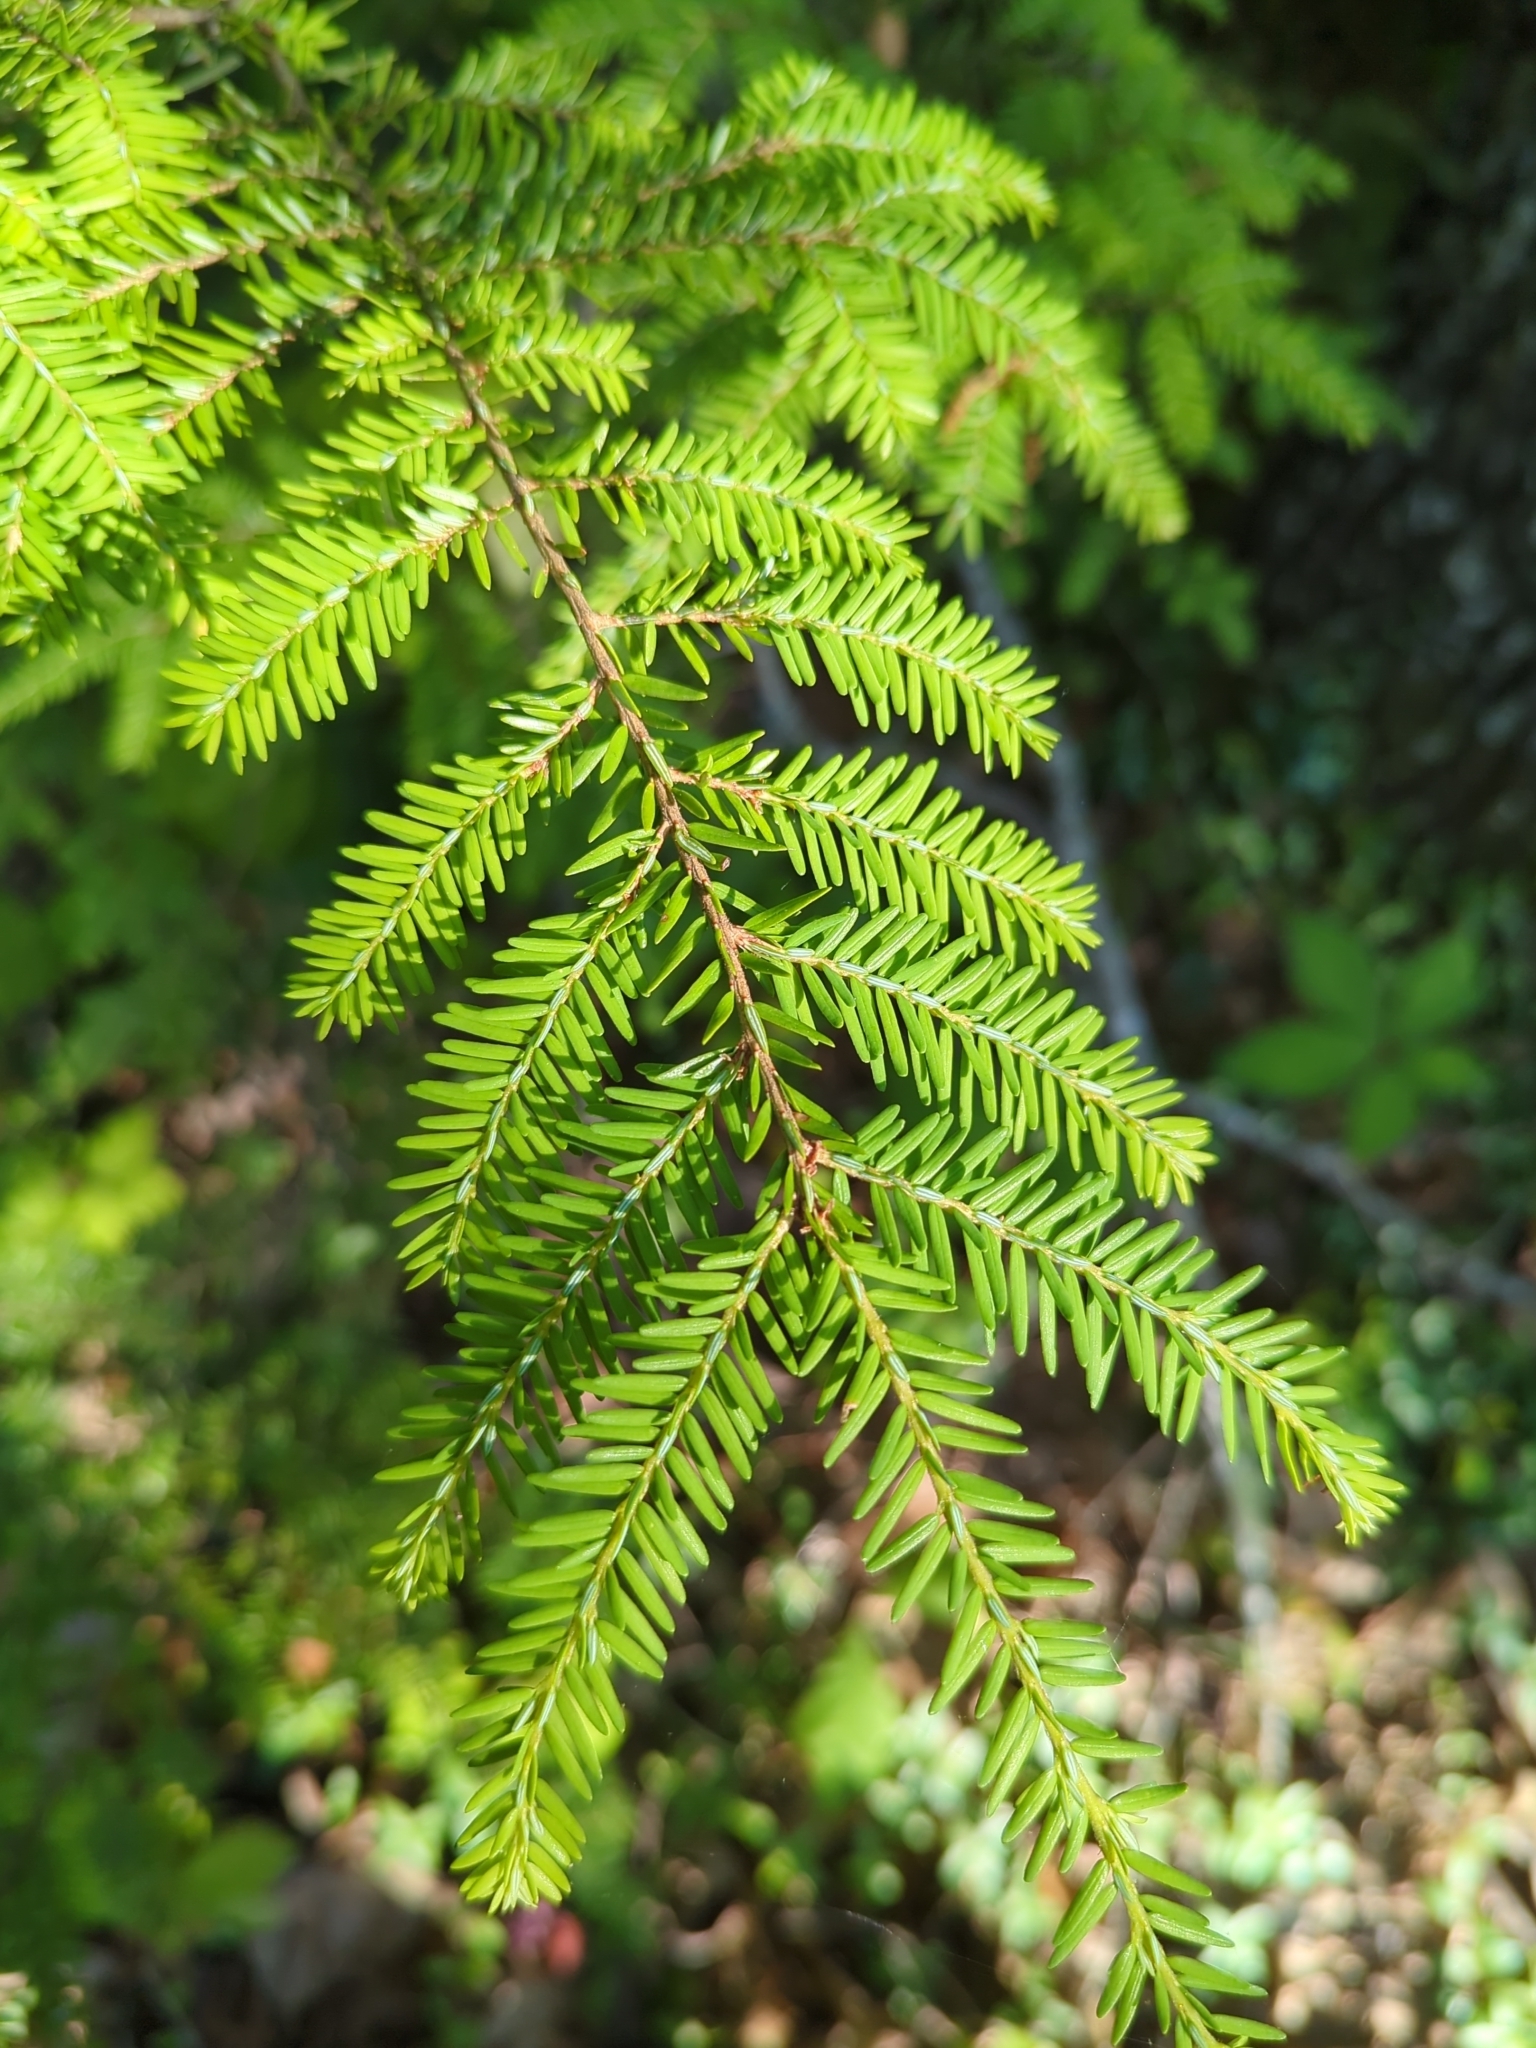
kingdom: Plantae
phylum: Tracheophyta
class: Pinopsida
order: Pinales
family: Pinaceae
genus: Tsuga
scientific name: Tsuga canadensis
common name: Eastern hemlock
